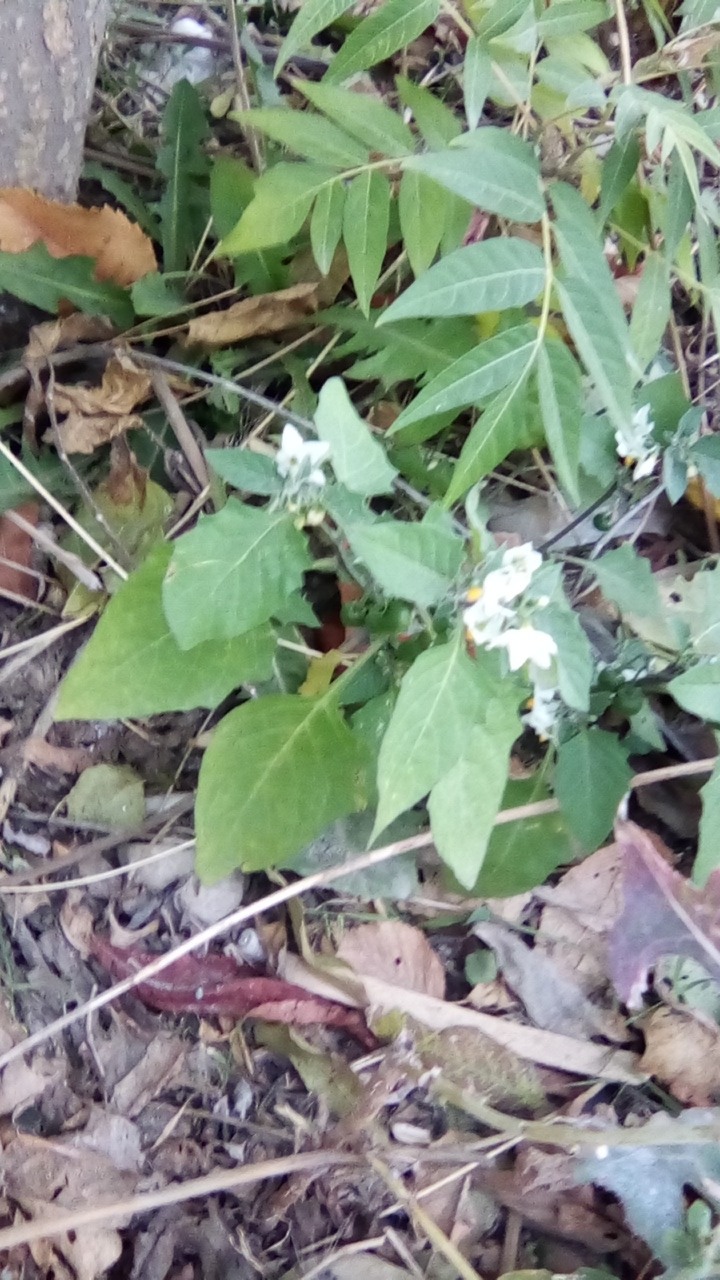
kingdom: Plantae
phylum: Tracheophyta
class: Magnoliopsida
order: Solanales
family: Solanaceae
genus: Solanum
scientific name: Solanum nigrum
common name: Black nightshade
